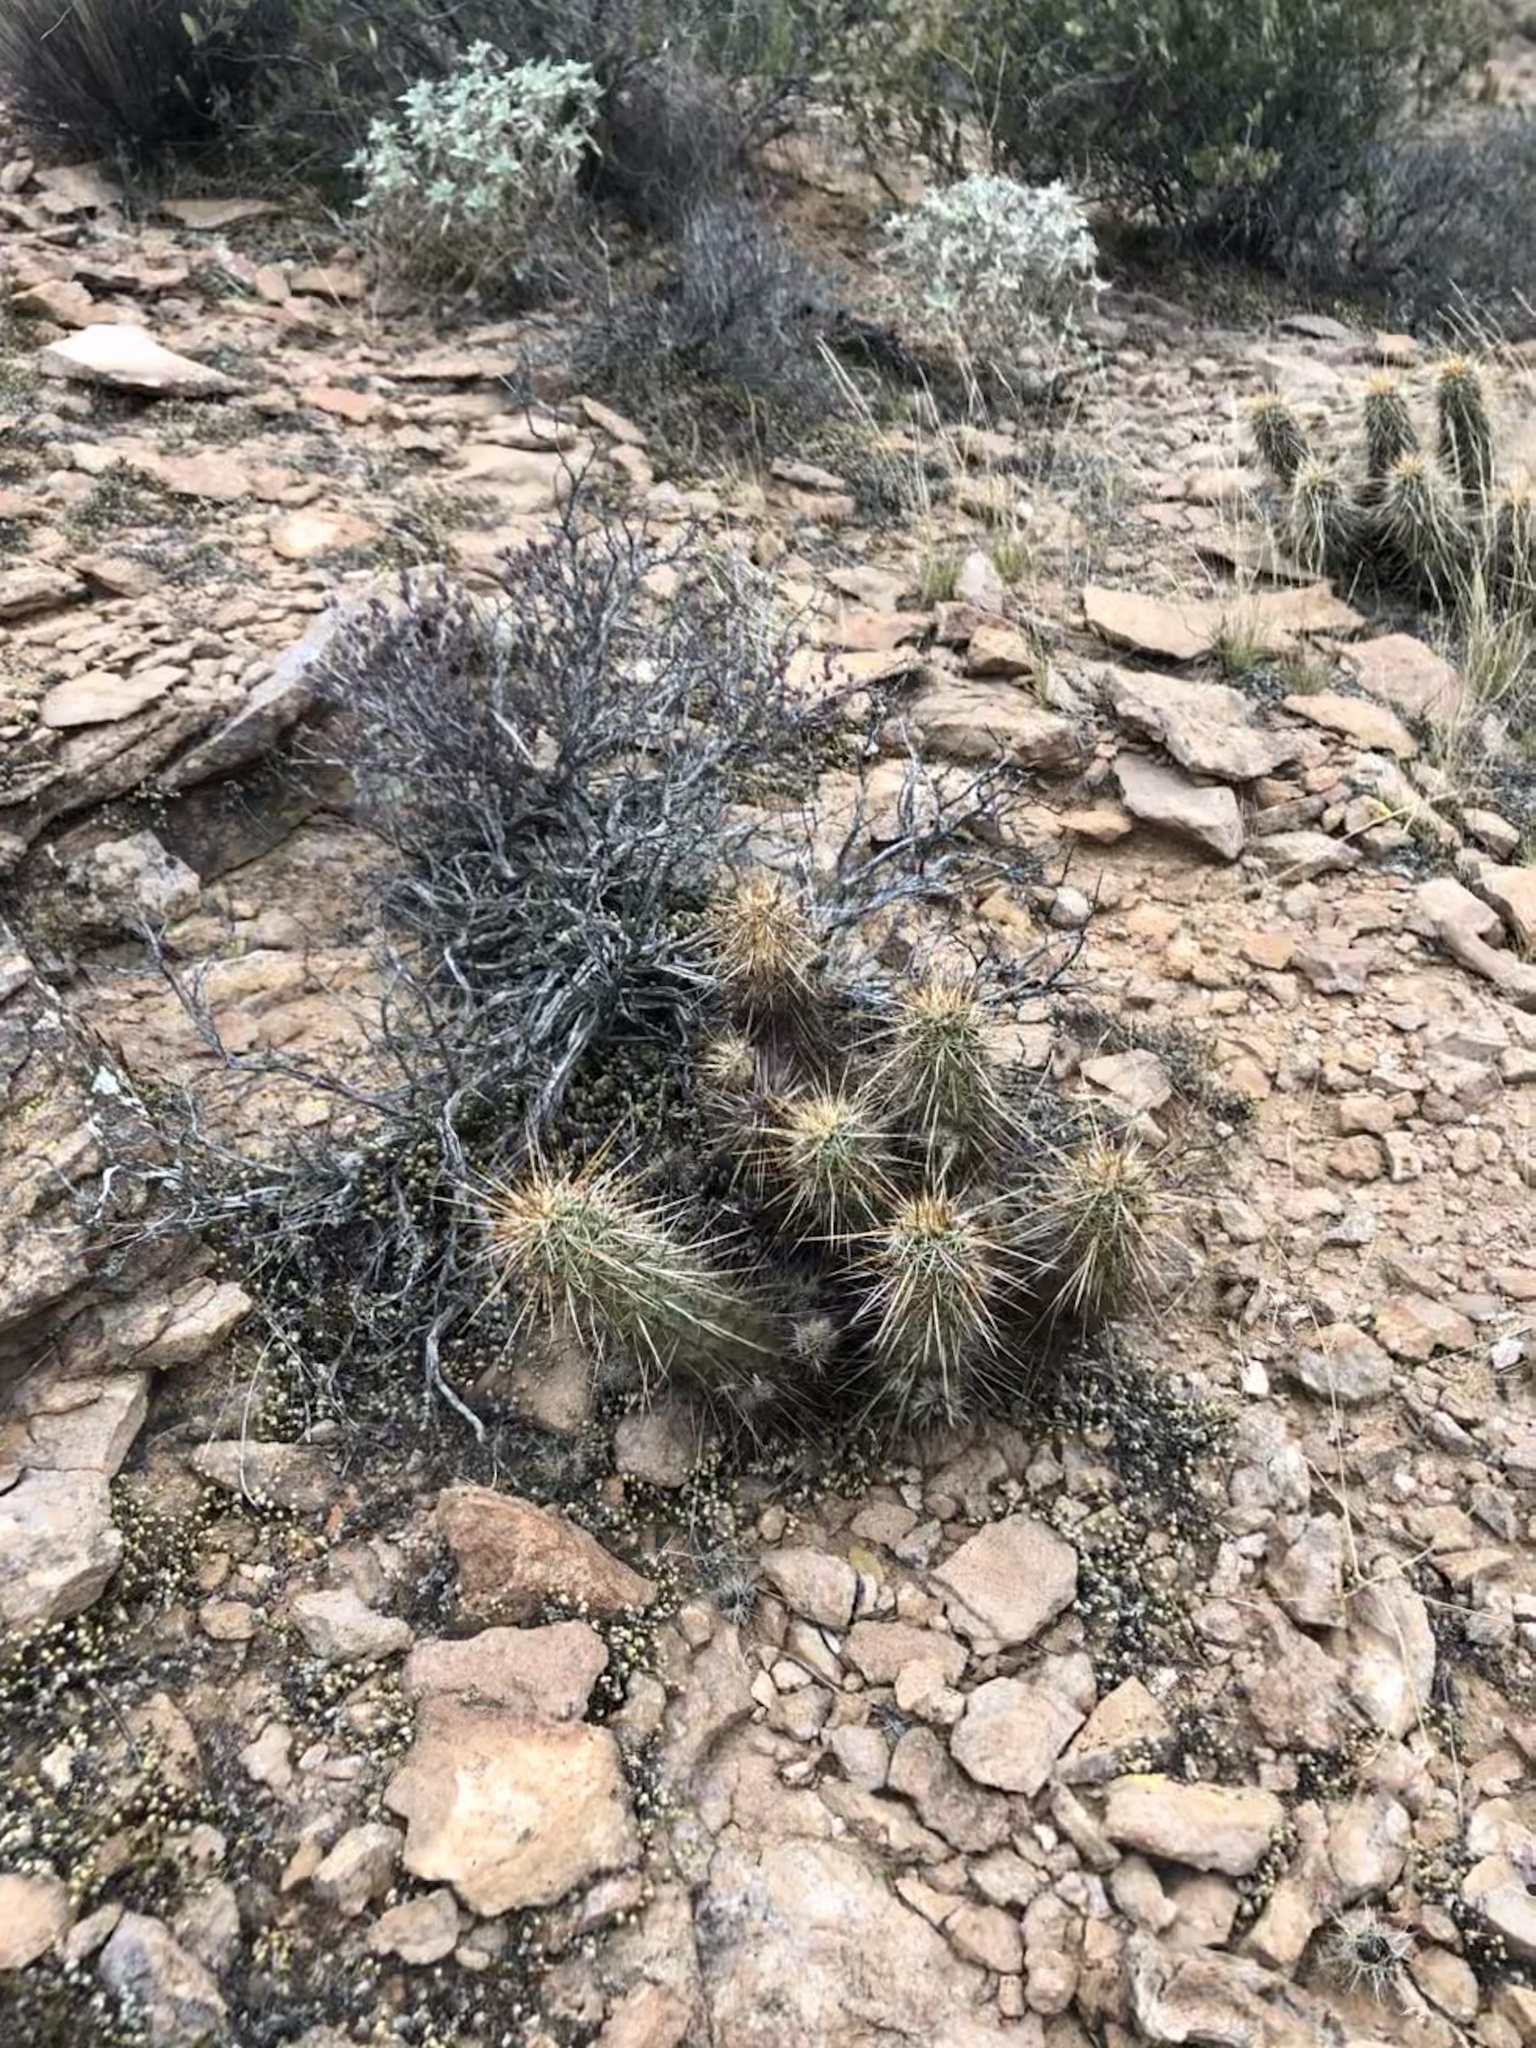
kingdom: Plantae
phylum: Tracheophyta
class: Magnoliopsida
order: Caryophyllales
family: Cactaceae
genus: Echinocereus
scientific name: Echinocereus fasciculatus
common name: Bundle hedgehog
